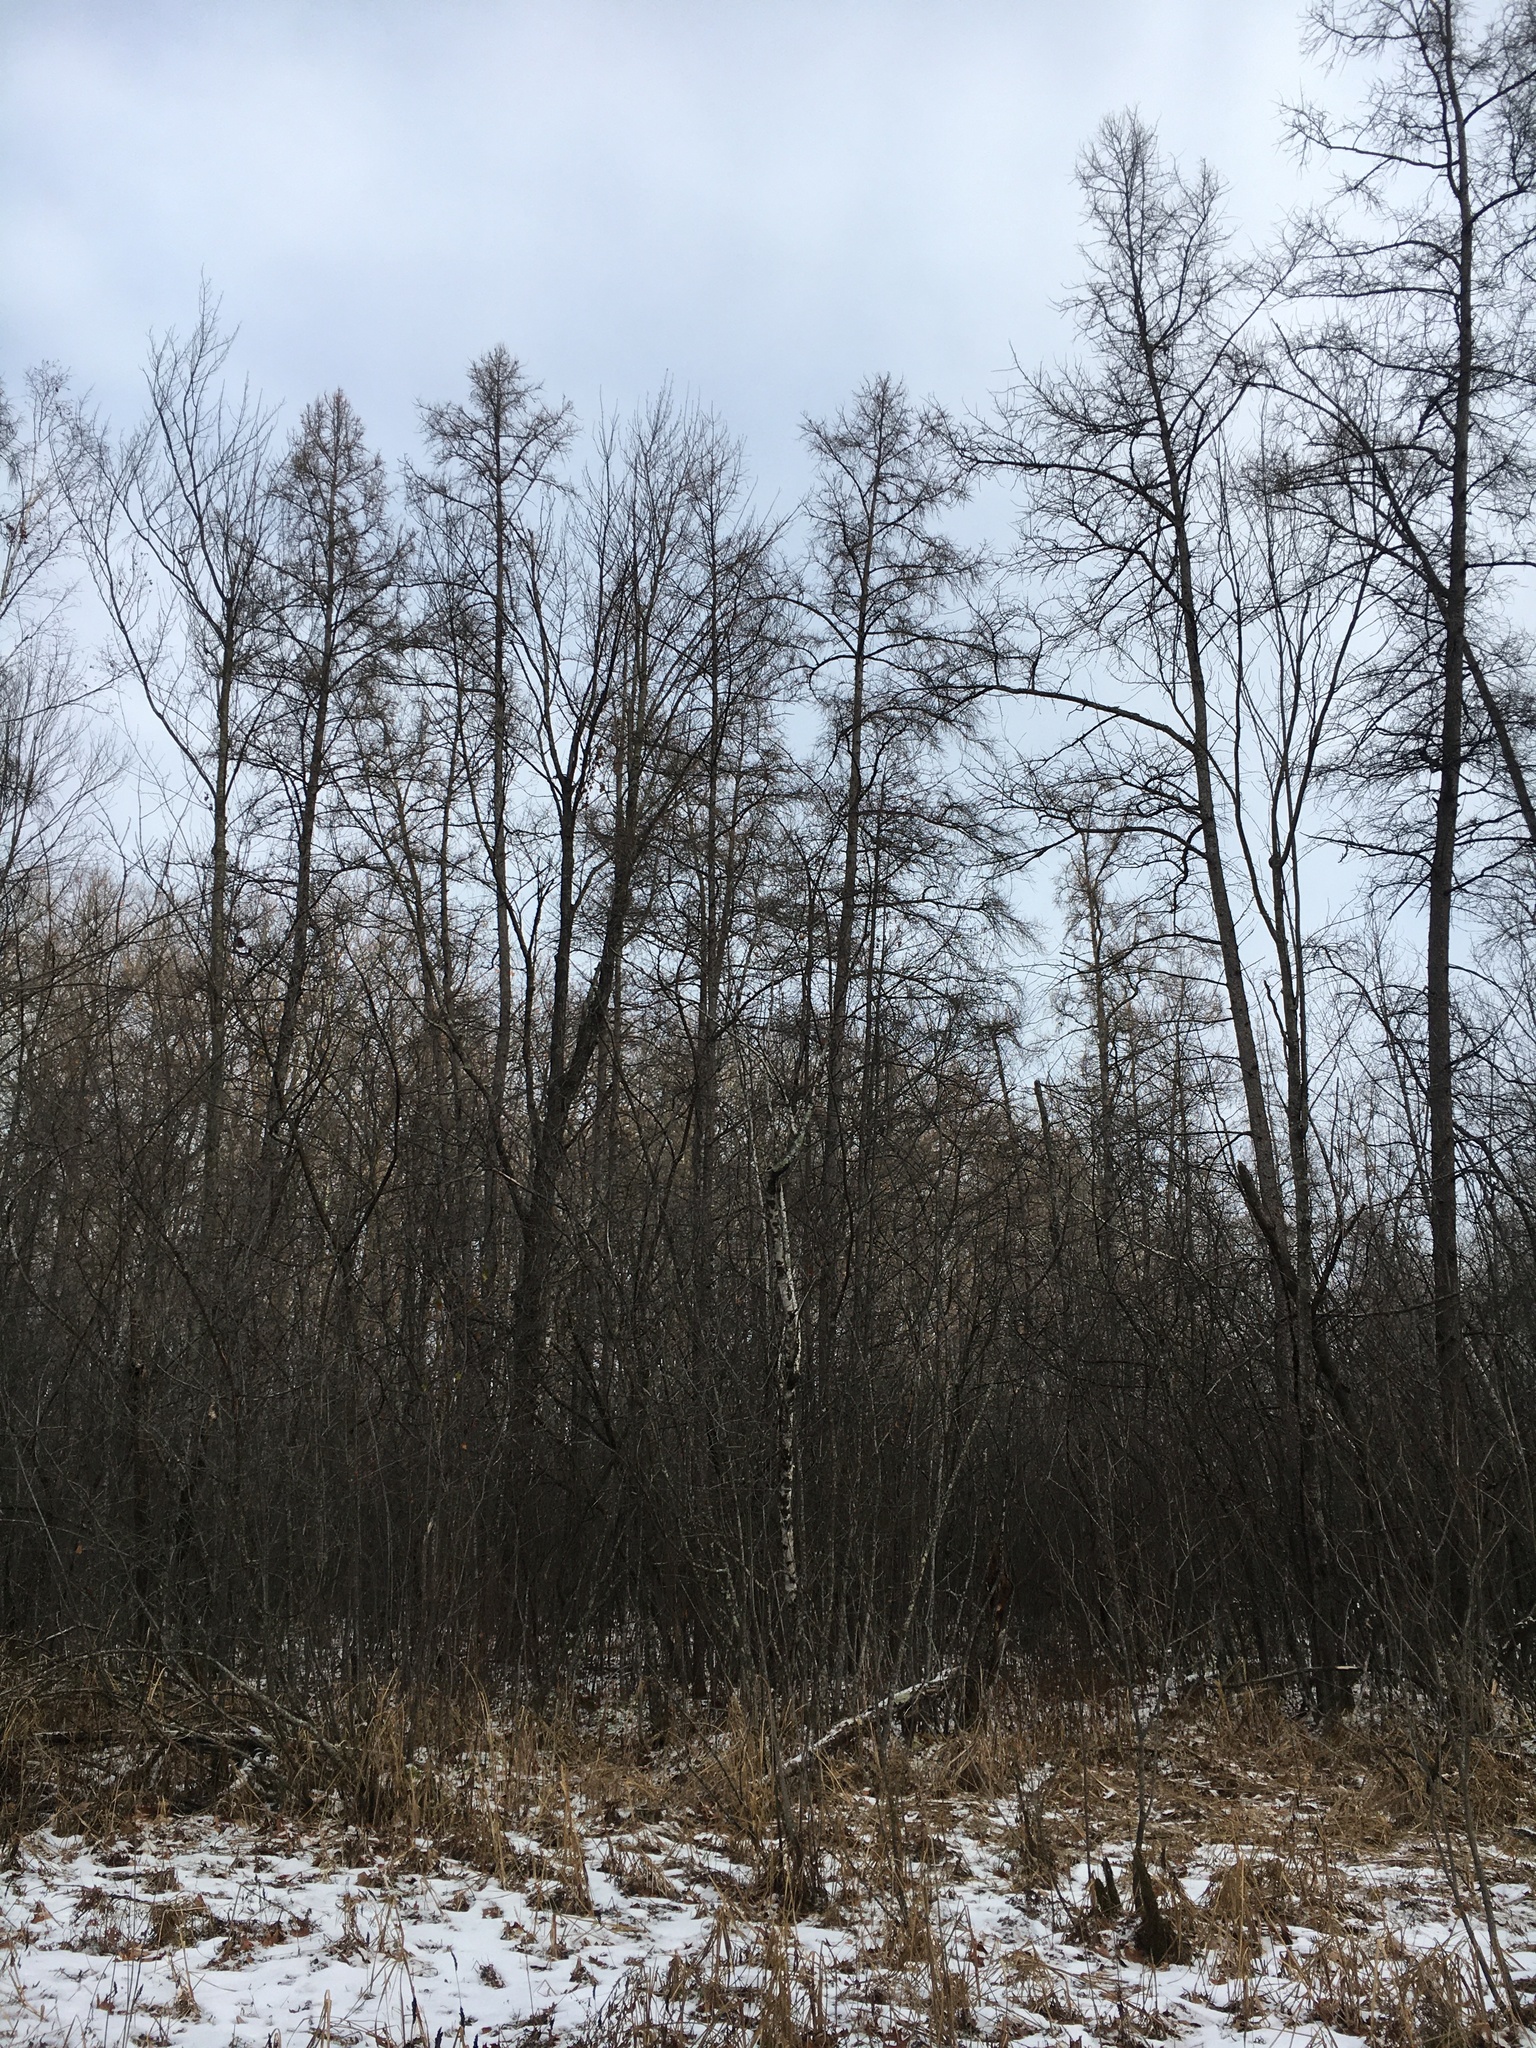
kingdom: Plantae
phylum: Tracheophyta
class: Pinopsida
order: Pinales
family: Pinaceae
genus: Larix
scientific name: Larix laricina
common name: American larch
